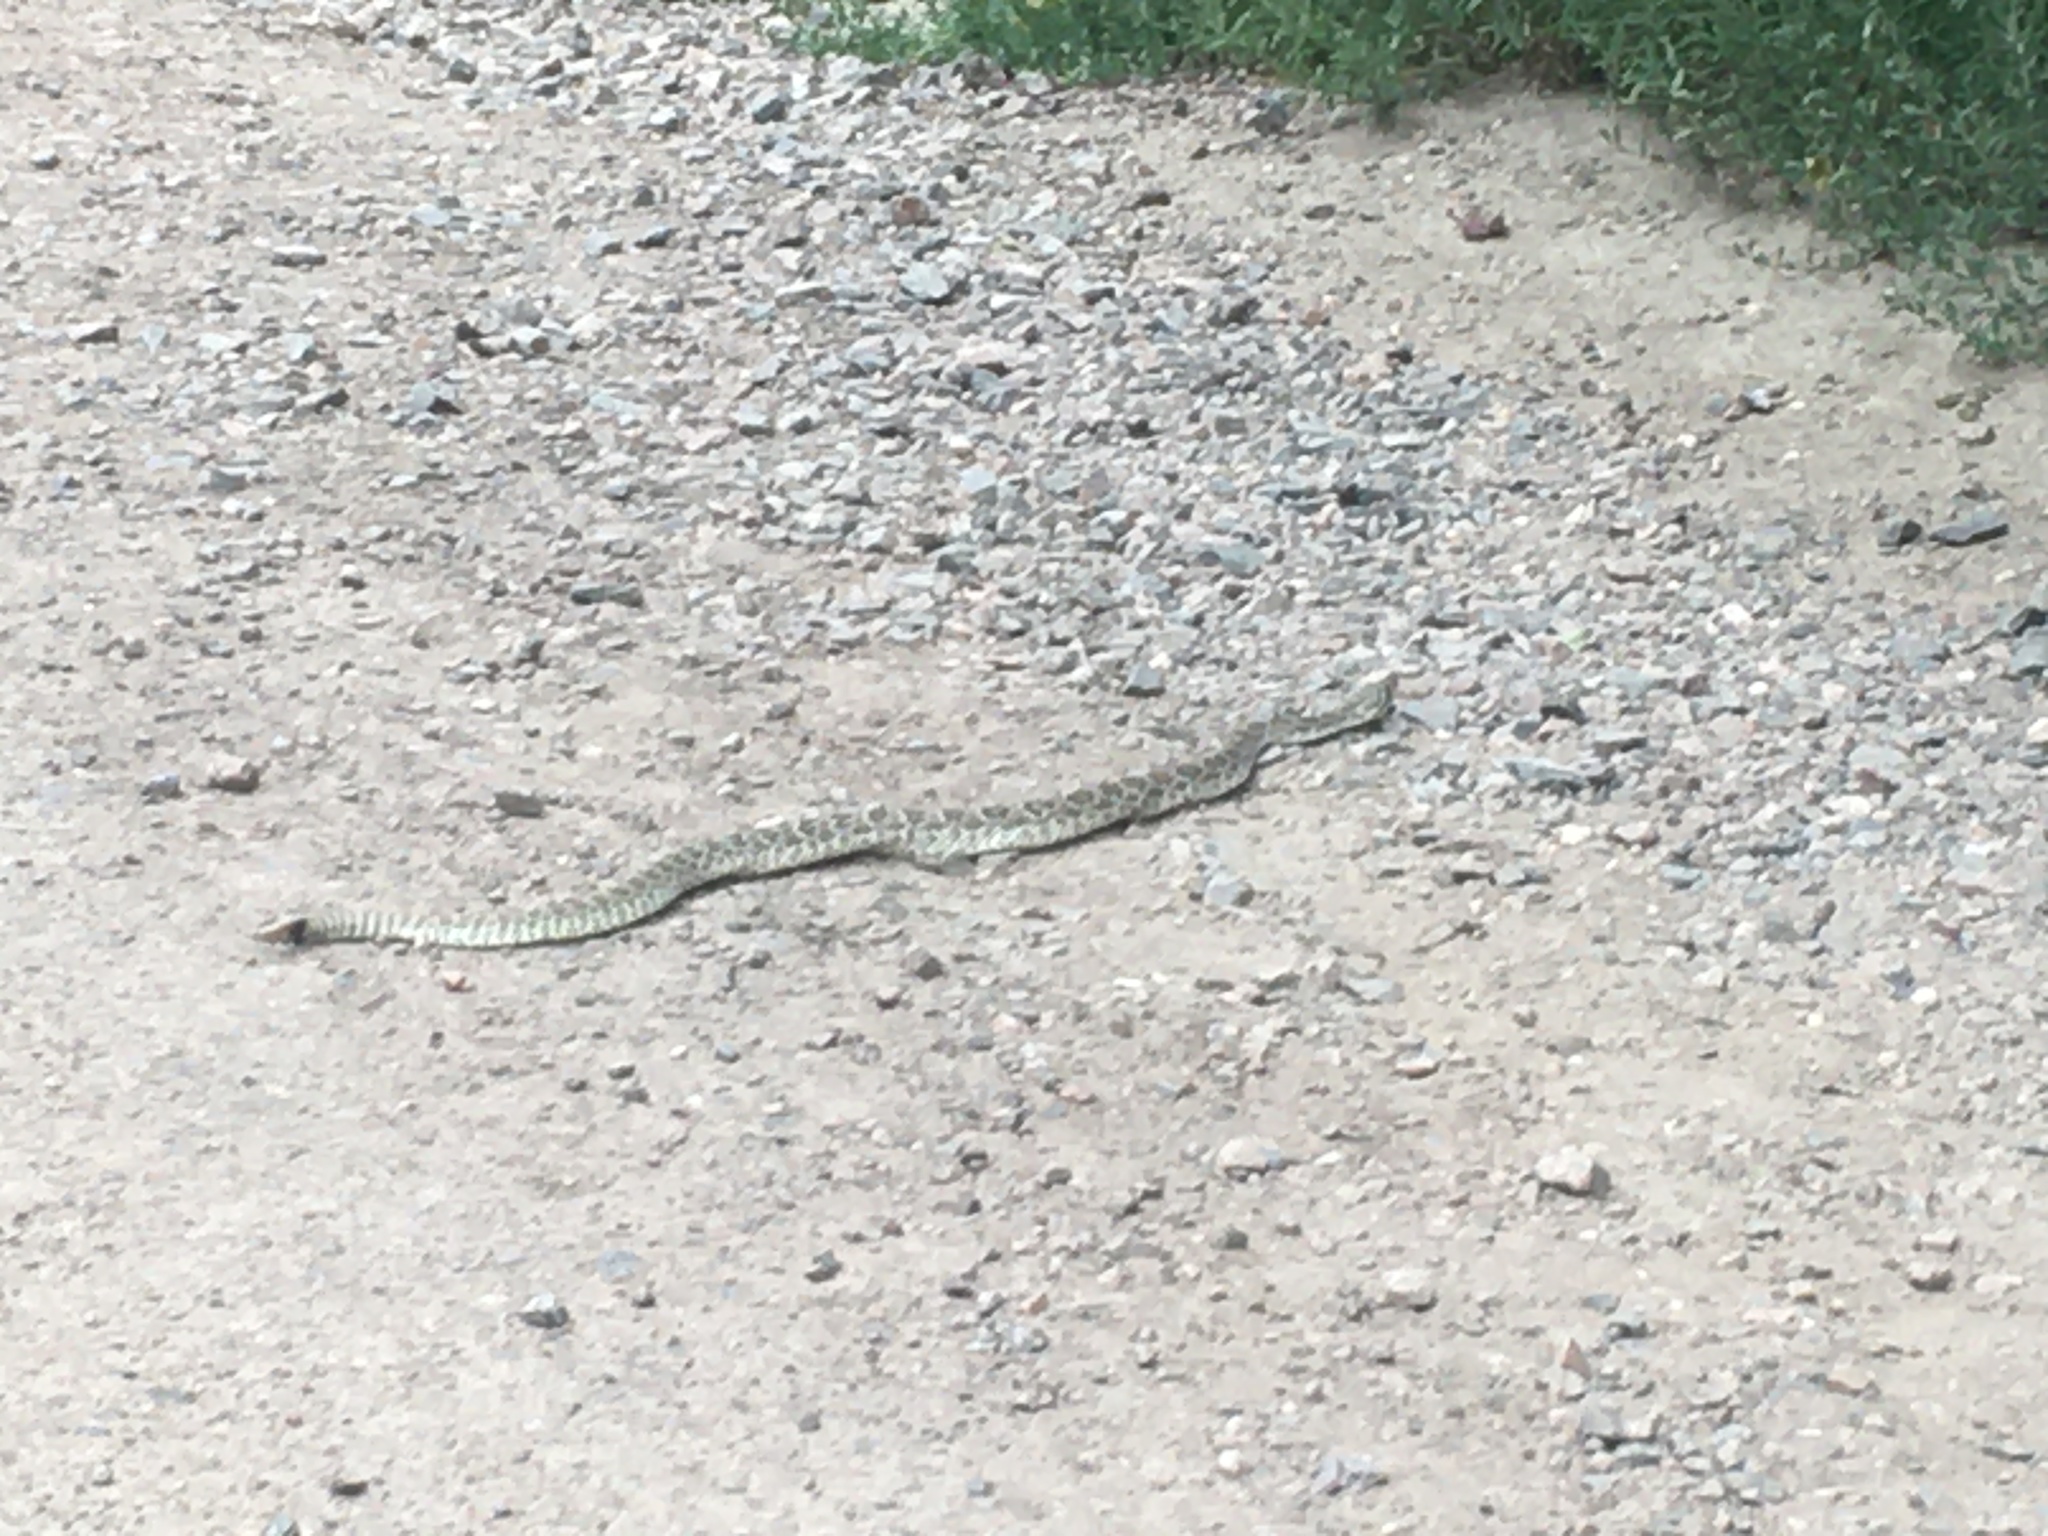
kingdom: Animalia
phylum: Chordata
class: Squamata
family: Viperidae
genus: Crotalus
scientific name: Crotalus viridis
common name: Prairie rattlesnake
